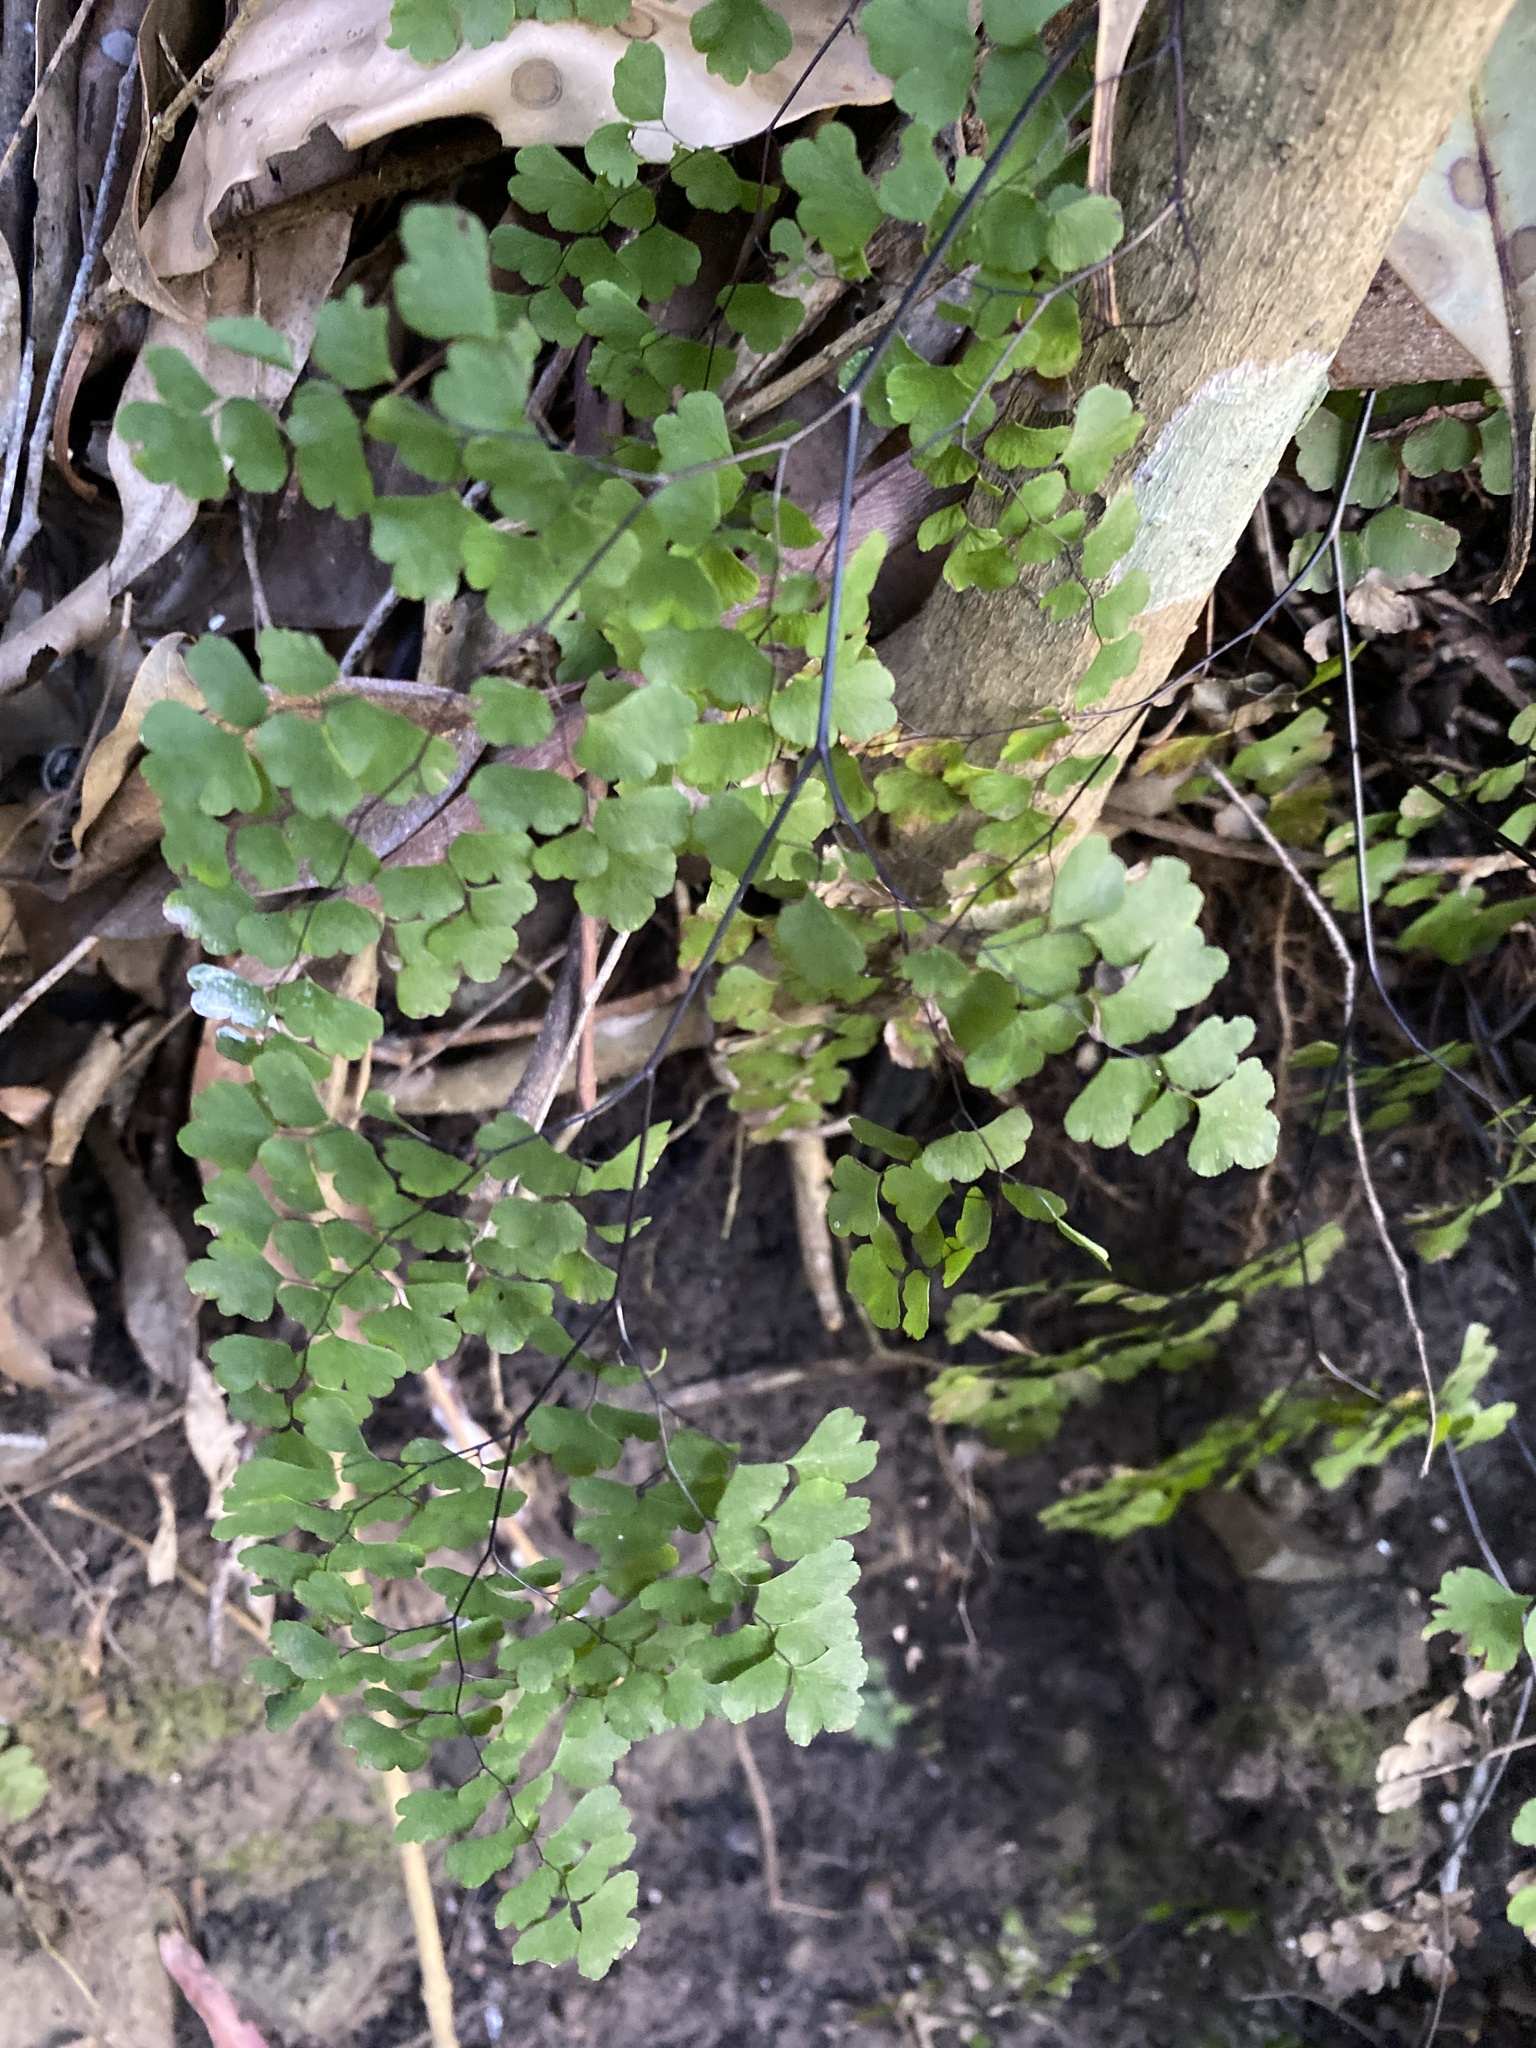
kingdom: Plantae
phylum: Tracheophyta
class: Polypodiopsida
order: Polypodiales
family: Pteridaceae
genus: Adiantum
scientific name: Adiantum atroviride
